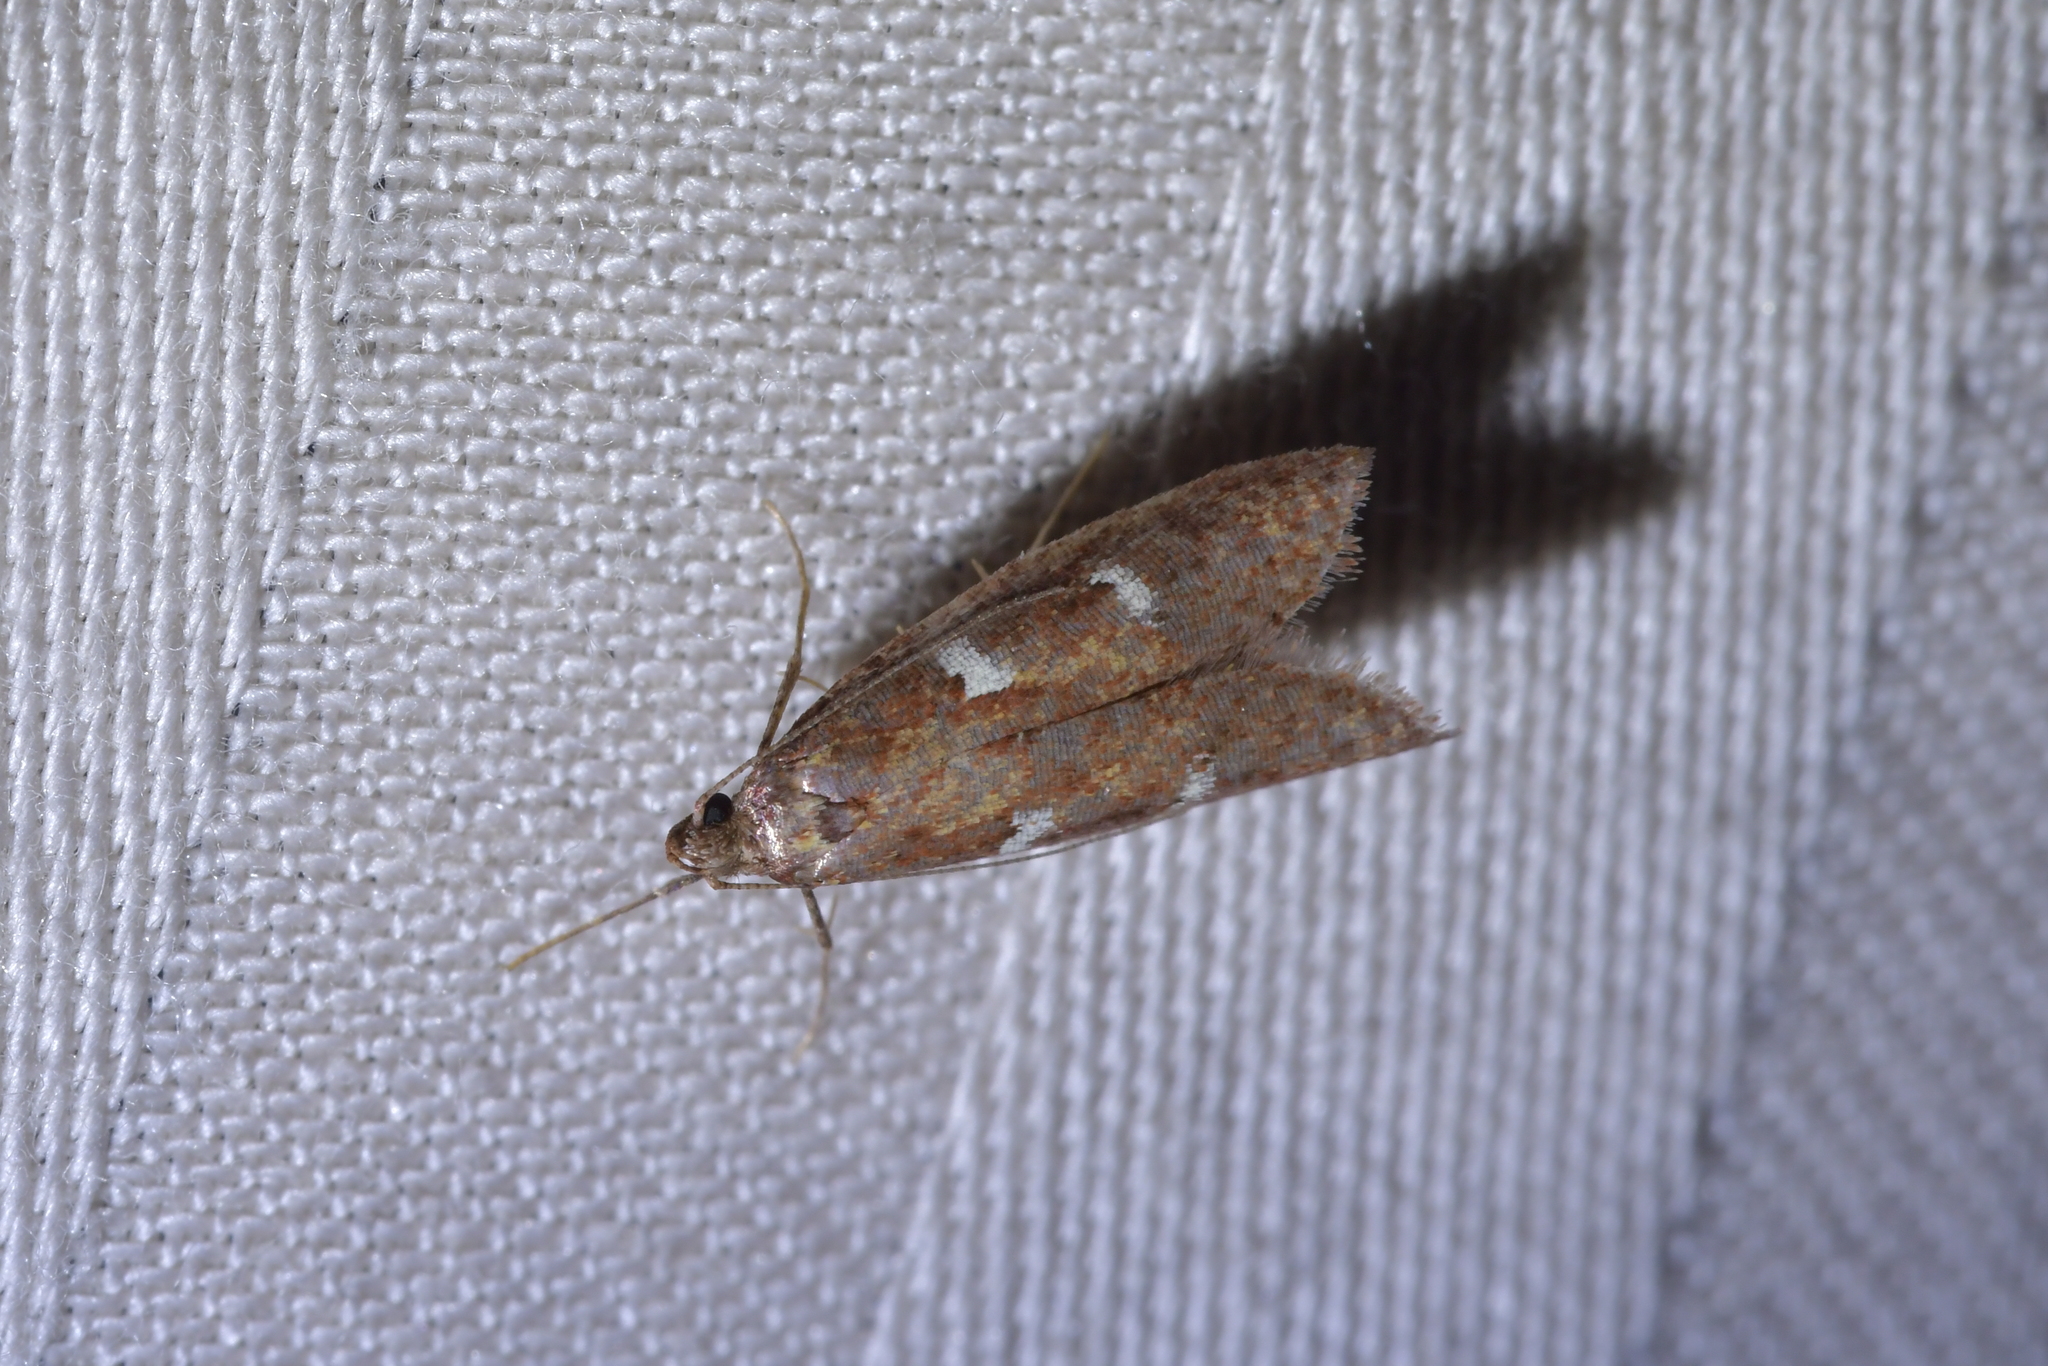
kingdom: Animalia
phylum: Arthropoda
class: Insecta
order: Lepidoptera
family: Plutellidae
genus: Cadmogenes
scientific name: Cadmogenes literata
